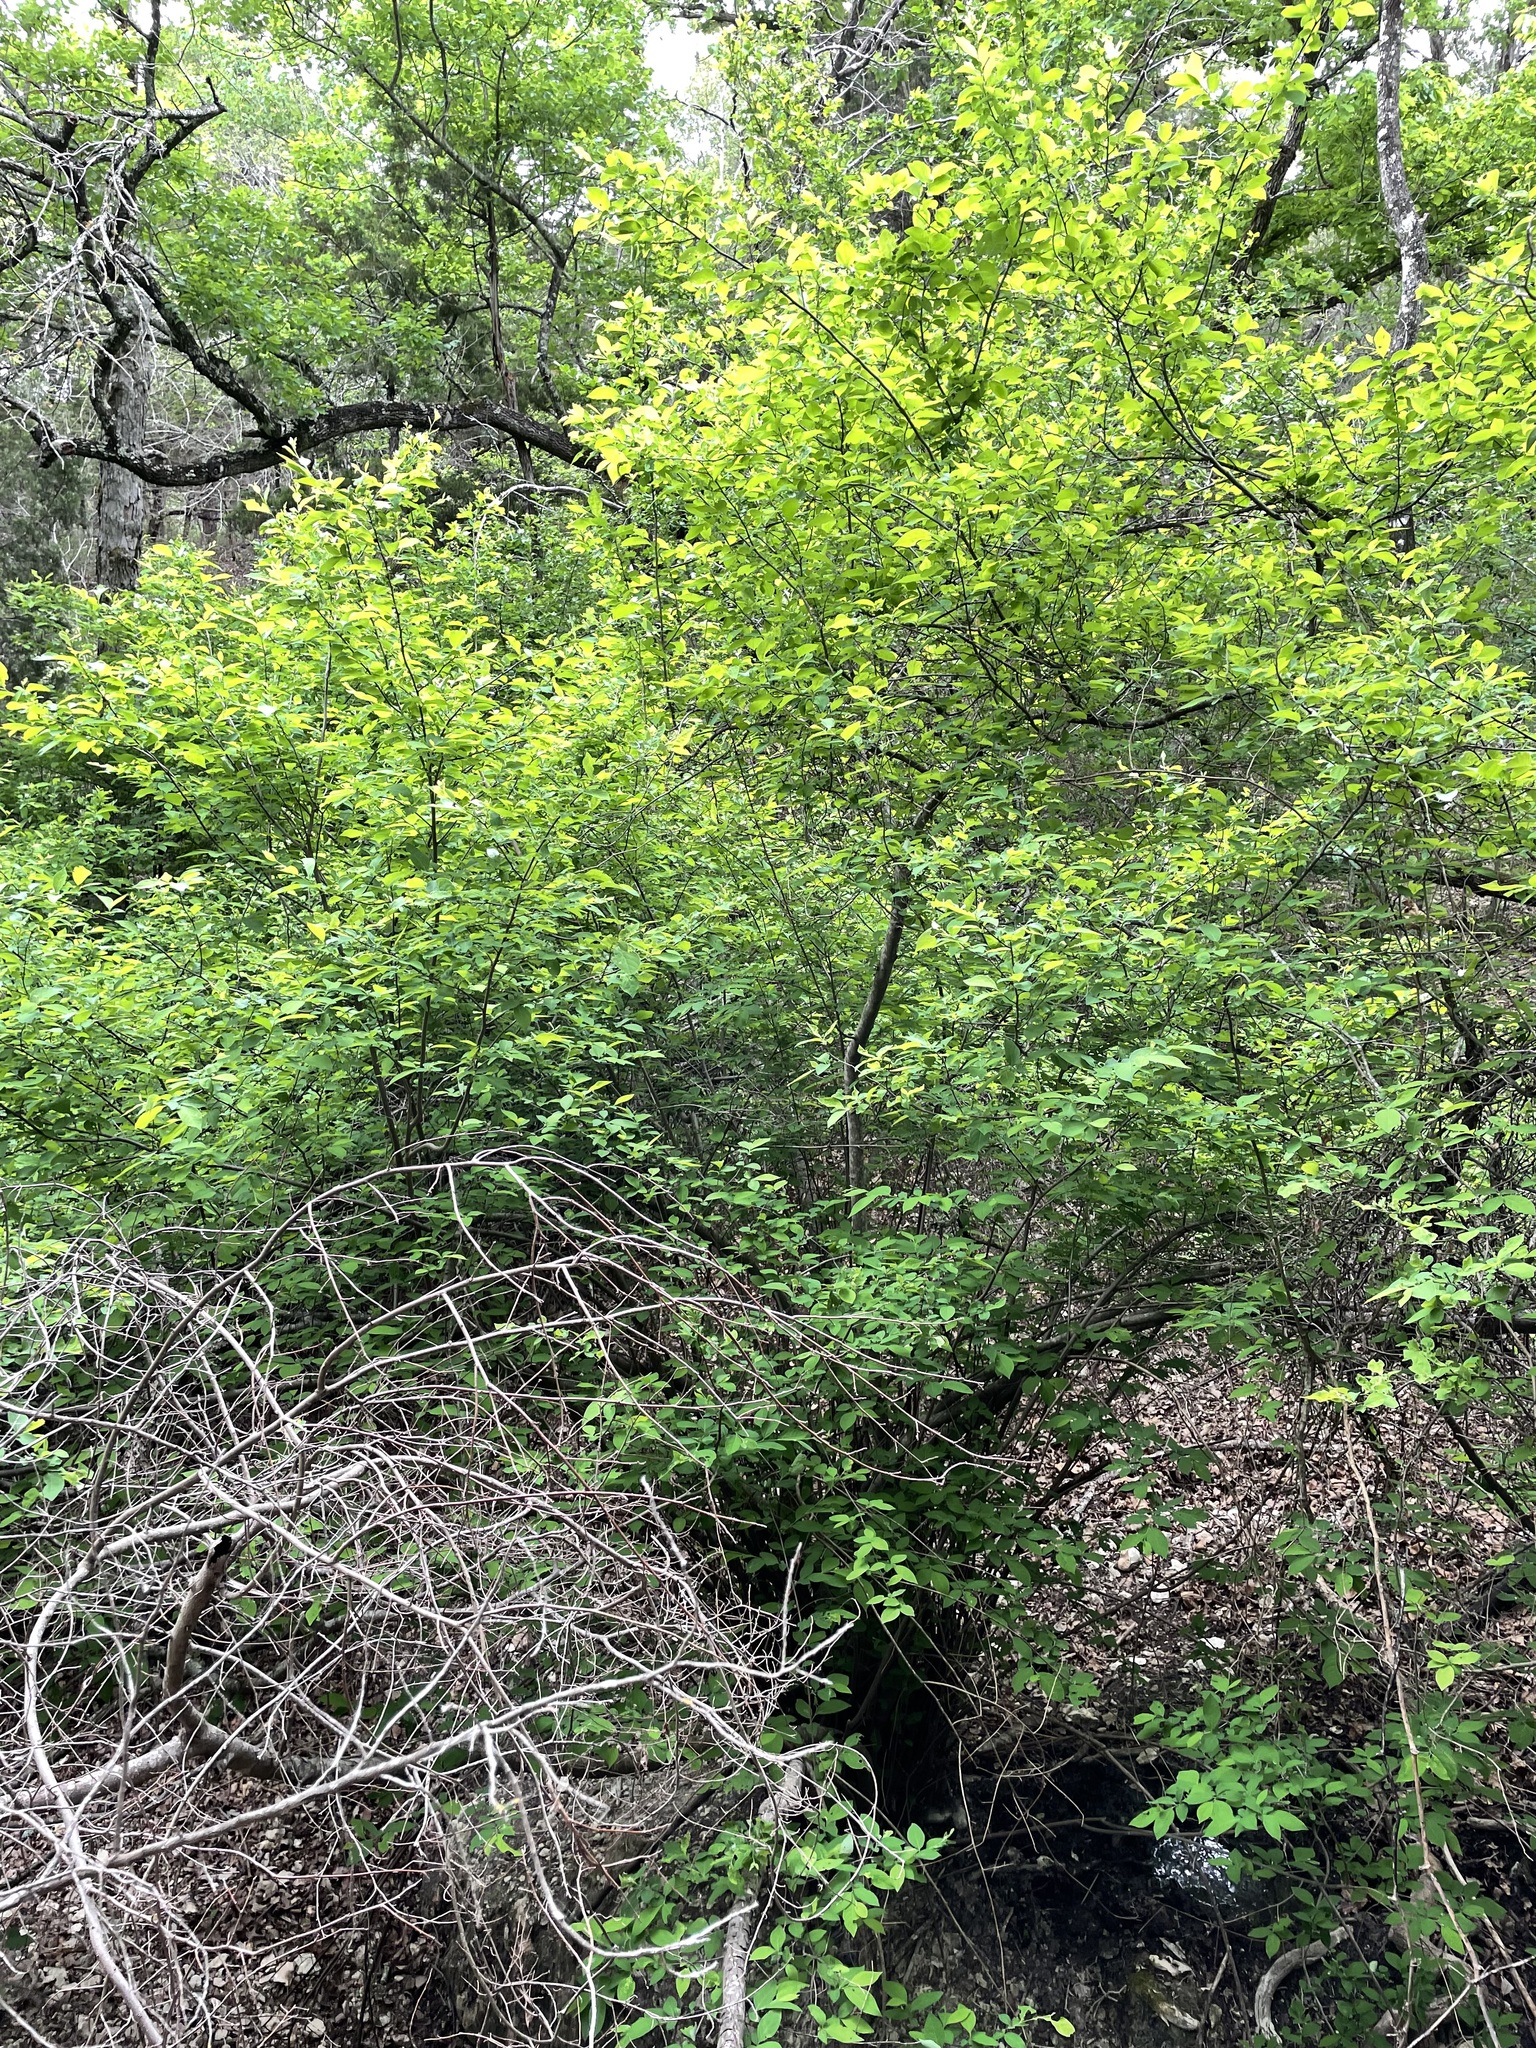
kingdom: Plantae
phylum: Tracheophyta
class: Magnoliopsida
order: Laurales
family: Lauraceae
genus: Lindera
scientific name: Lindera benzoin
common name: Spicebush
